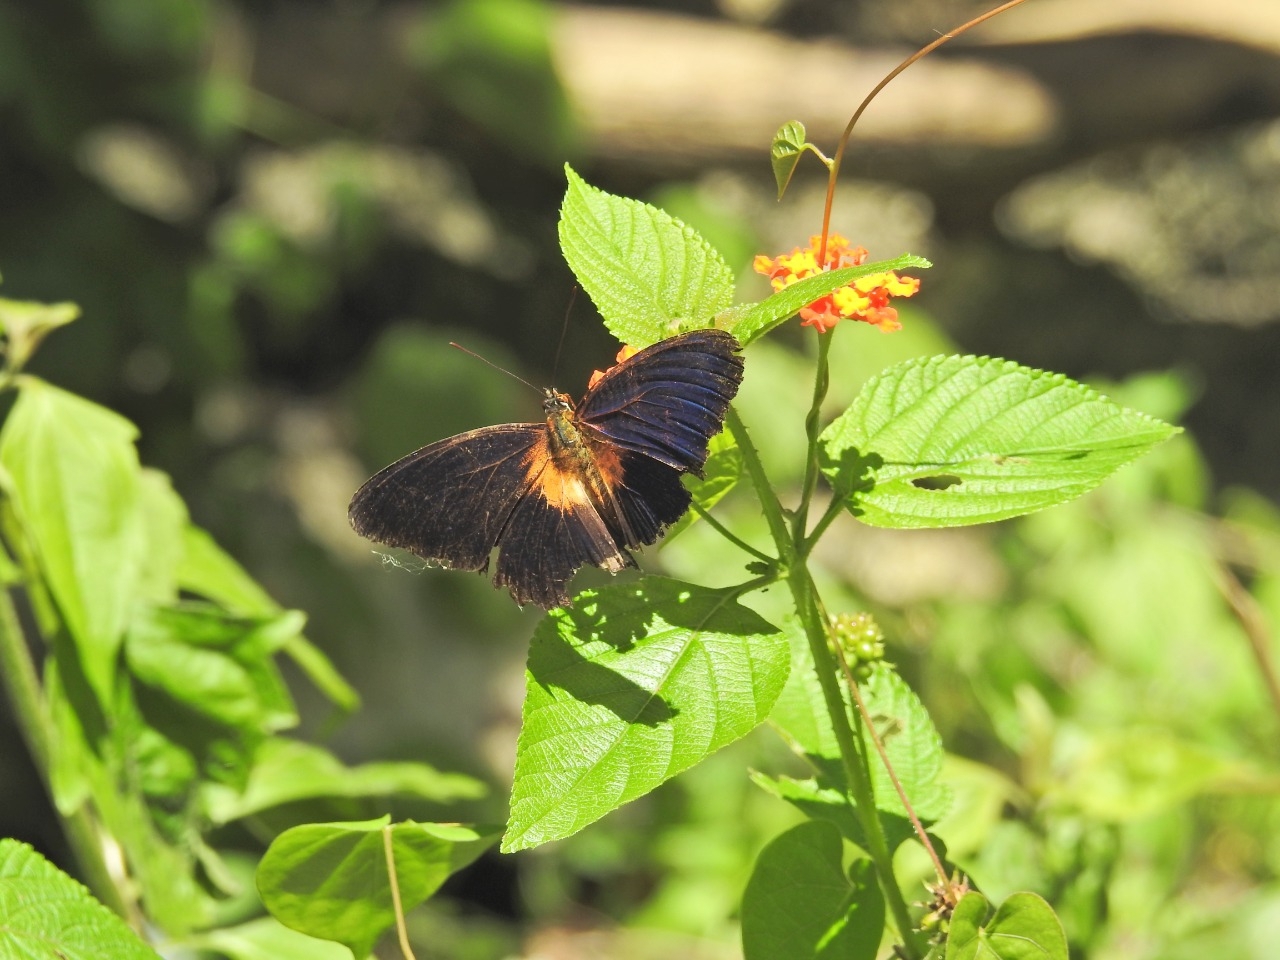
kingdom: Animalia
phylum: Arthropoda
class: Insecta
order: Lepidoptera
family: Nymphalidae
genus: Cethosia
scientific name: Cethosia lamarckii
